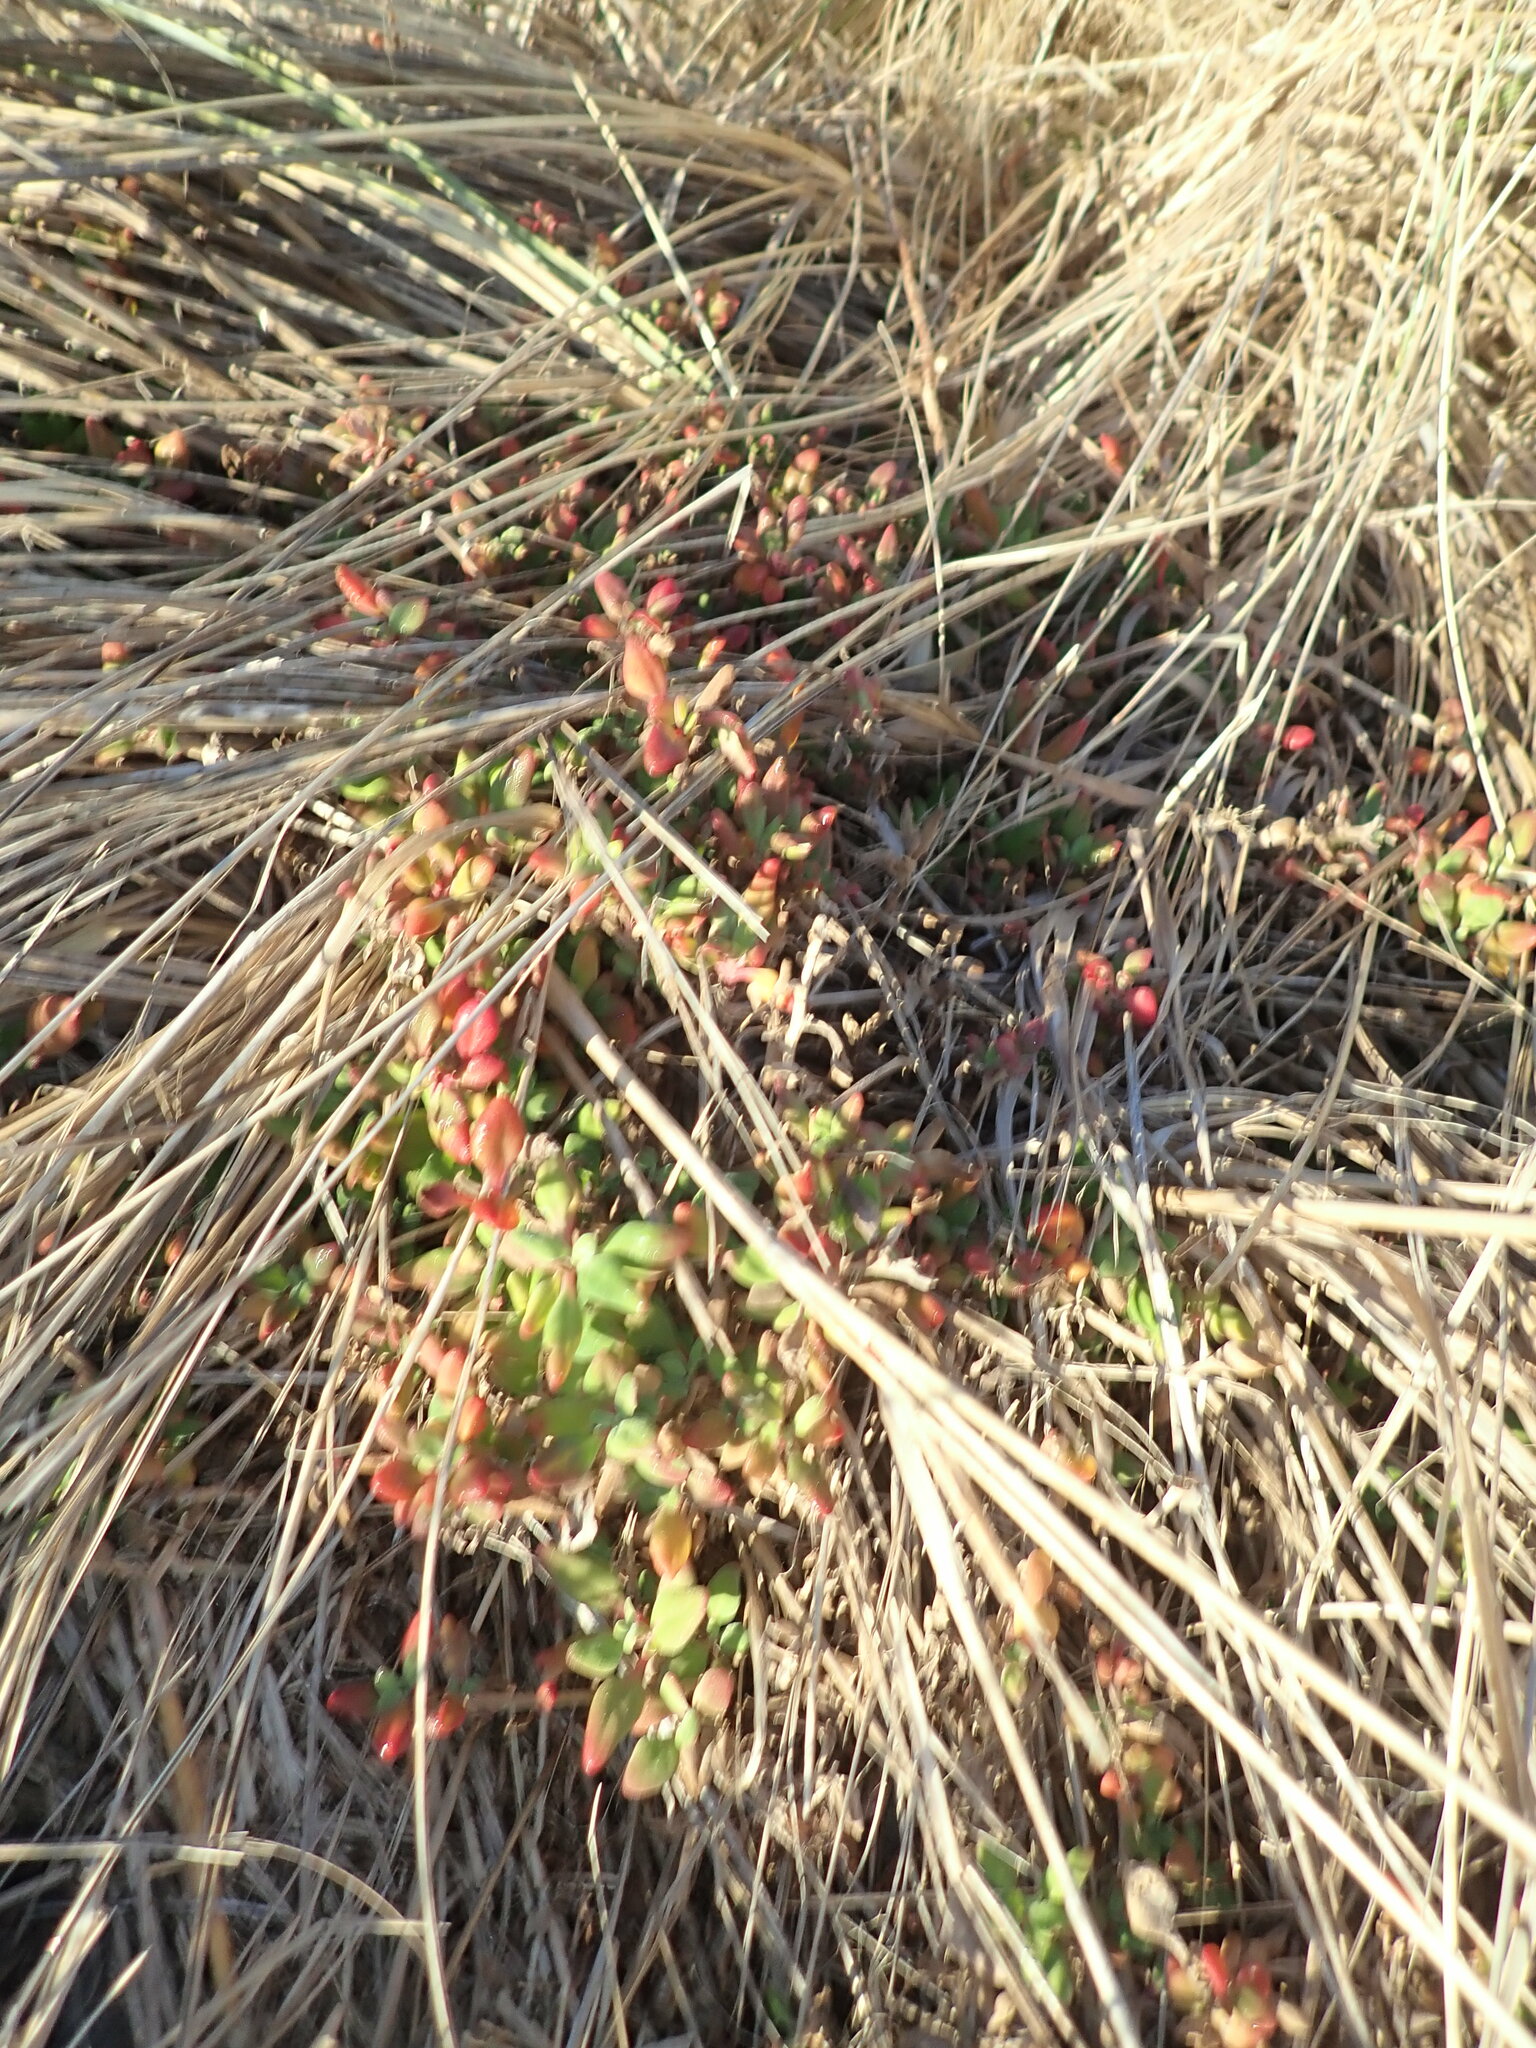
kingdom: Plantae
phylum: Tracheophyta
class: Magnoliopsida
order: Caryophyllales
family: Aizoaceae
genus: Tetragonia
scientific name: Tetragonia implexicoma
